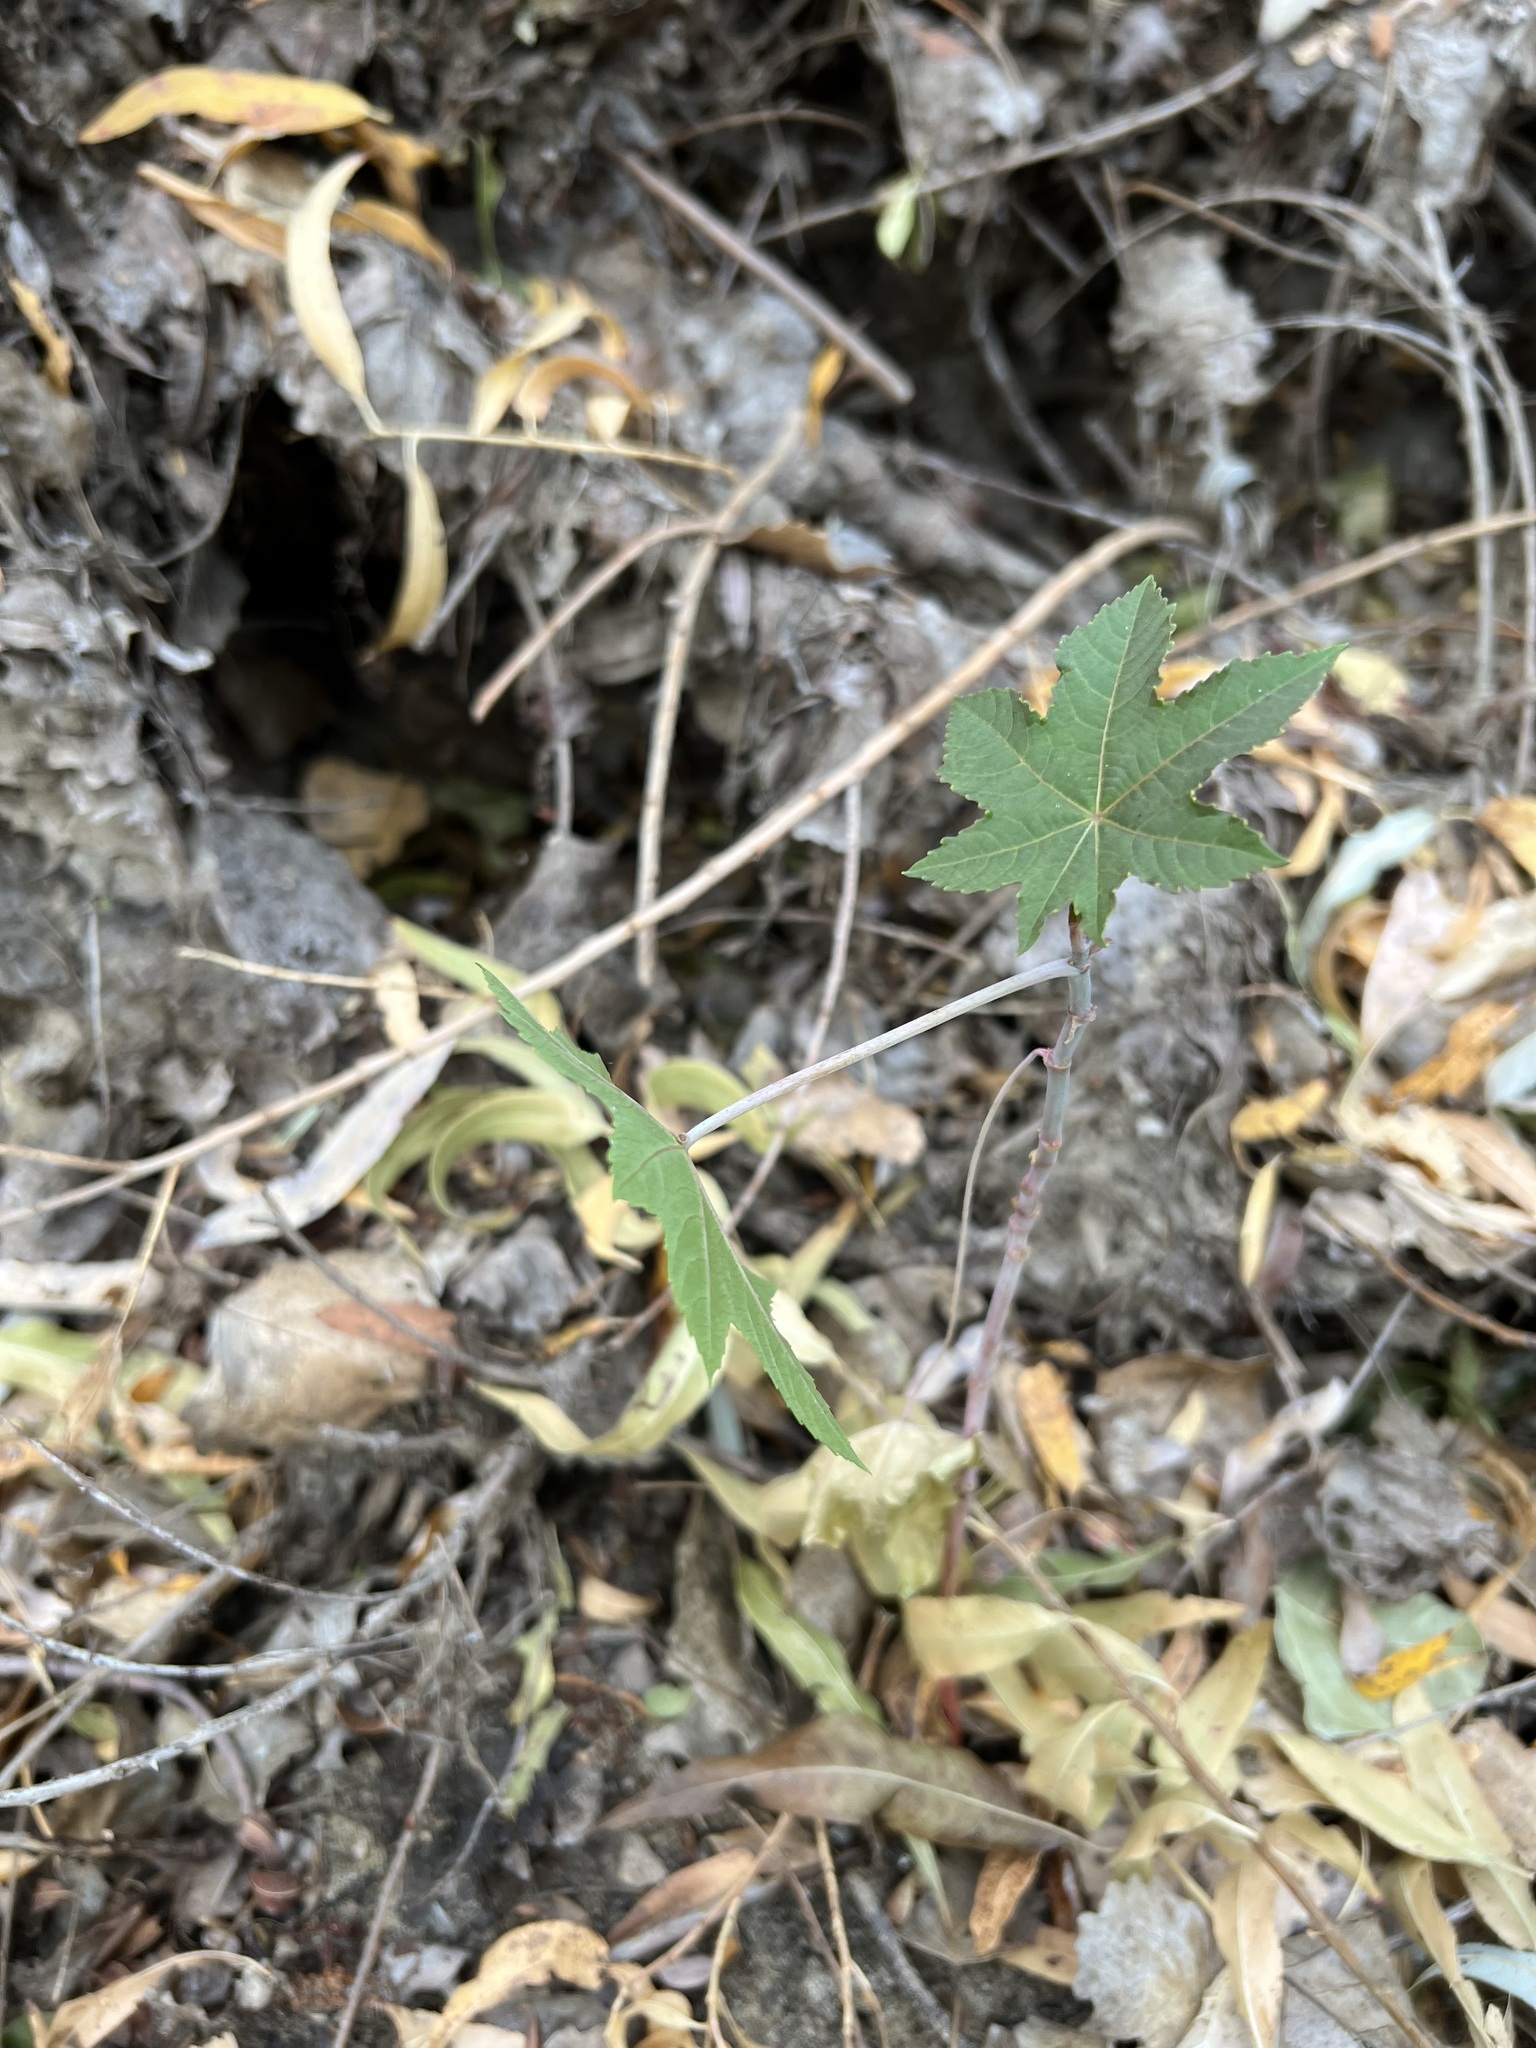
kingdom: Plantae
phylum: Tracheophyta
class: Magnoliopsida
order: Malpighiales
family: Euphorbiaceae
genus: Ricinus
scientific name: Ricinus communis
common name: Castor-oil-plant
